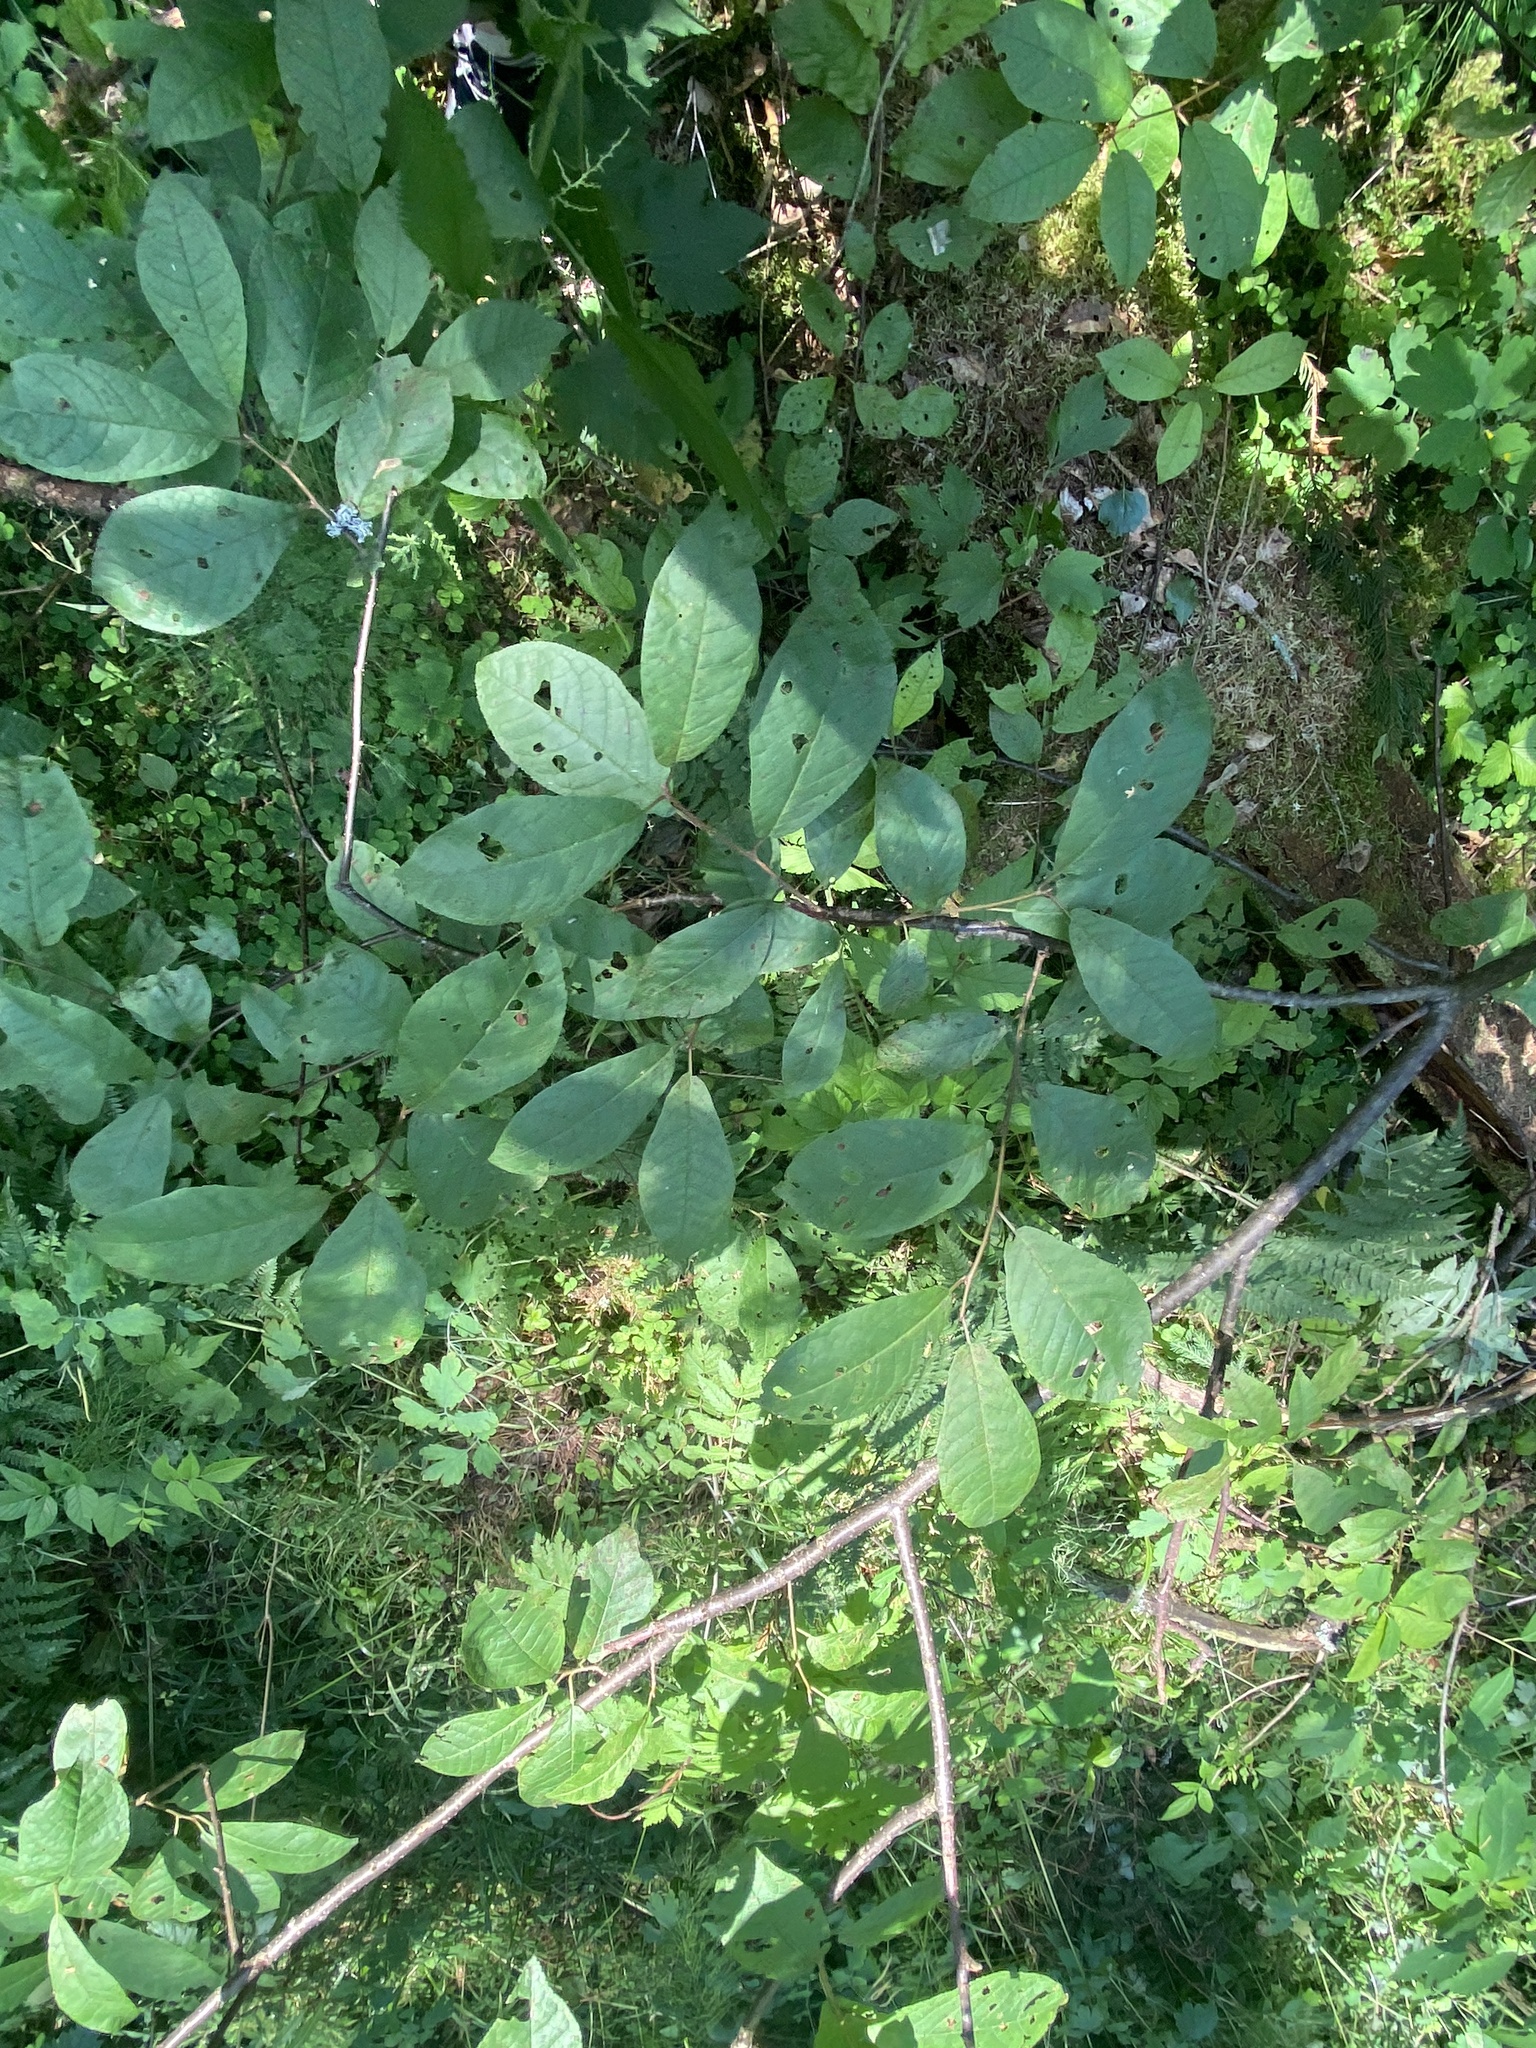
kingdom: Plantae
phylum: Tracheophyta
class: Magnoliopsida
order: Rosales
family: Rosaceae
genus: Prunus
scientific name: Prunus padus
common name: Bird cherry
